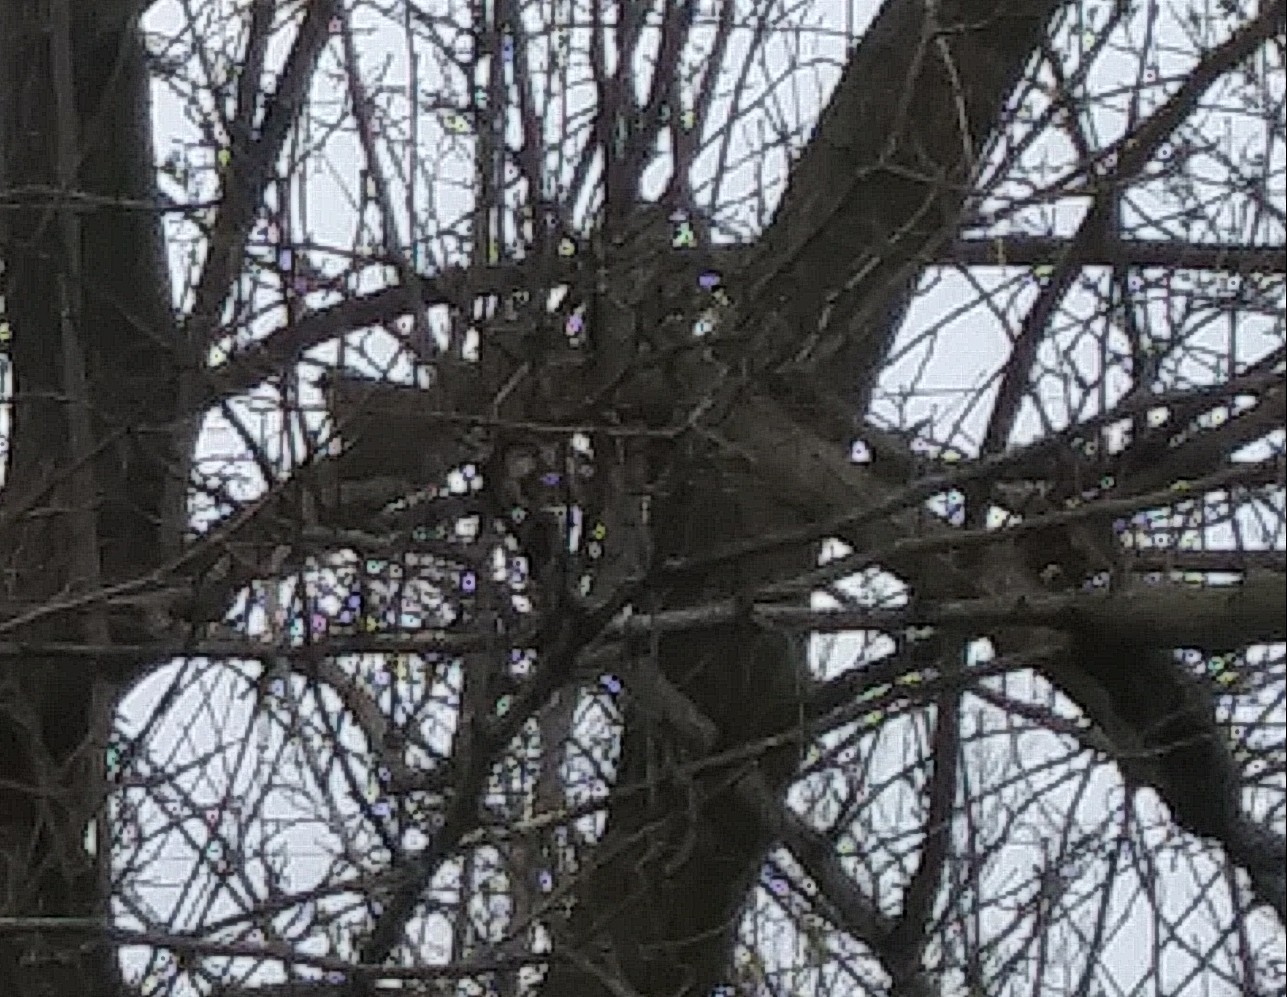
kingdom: Animalia
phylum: Chordata
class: Aves
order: Passeriformes
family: Paridae
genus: Poecile
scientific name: Poecile atricapillus
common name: Black-capped chickadee
